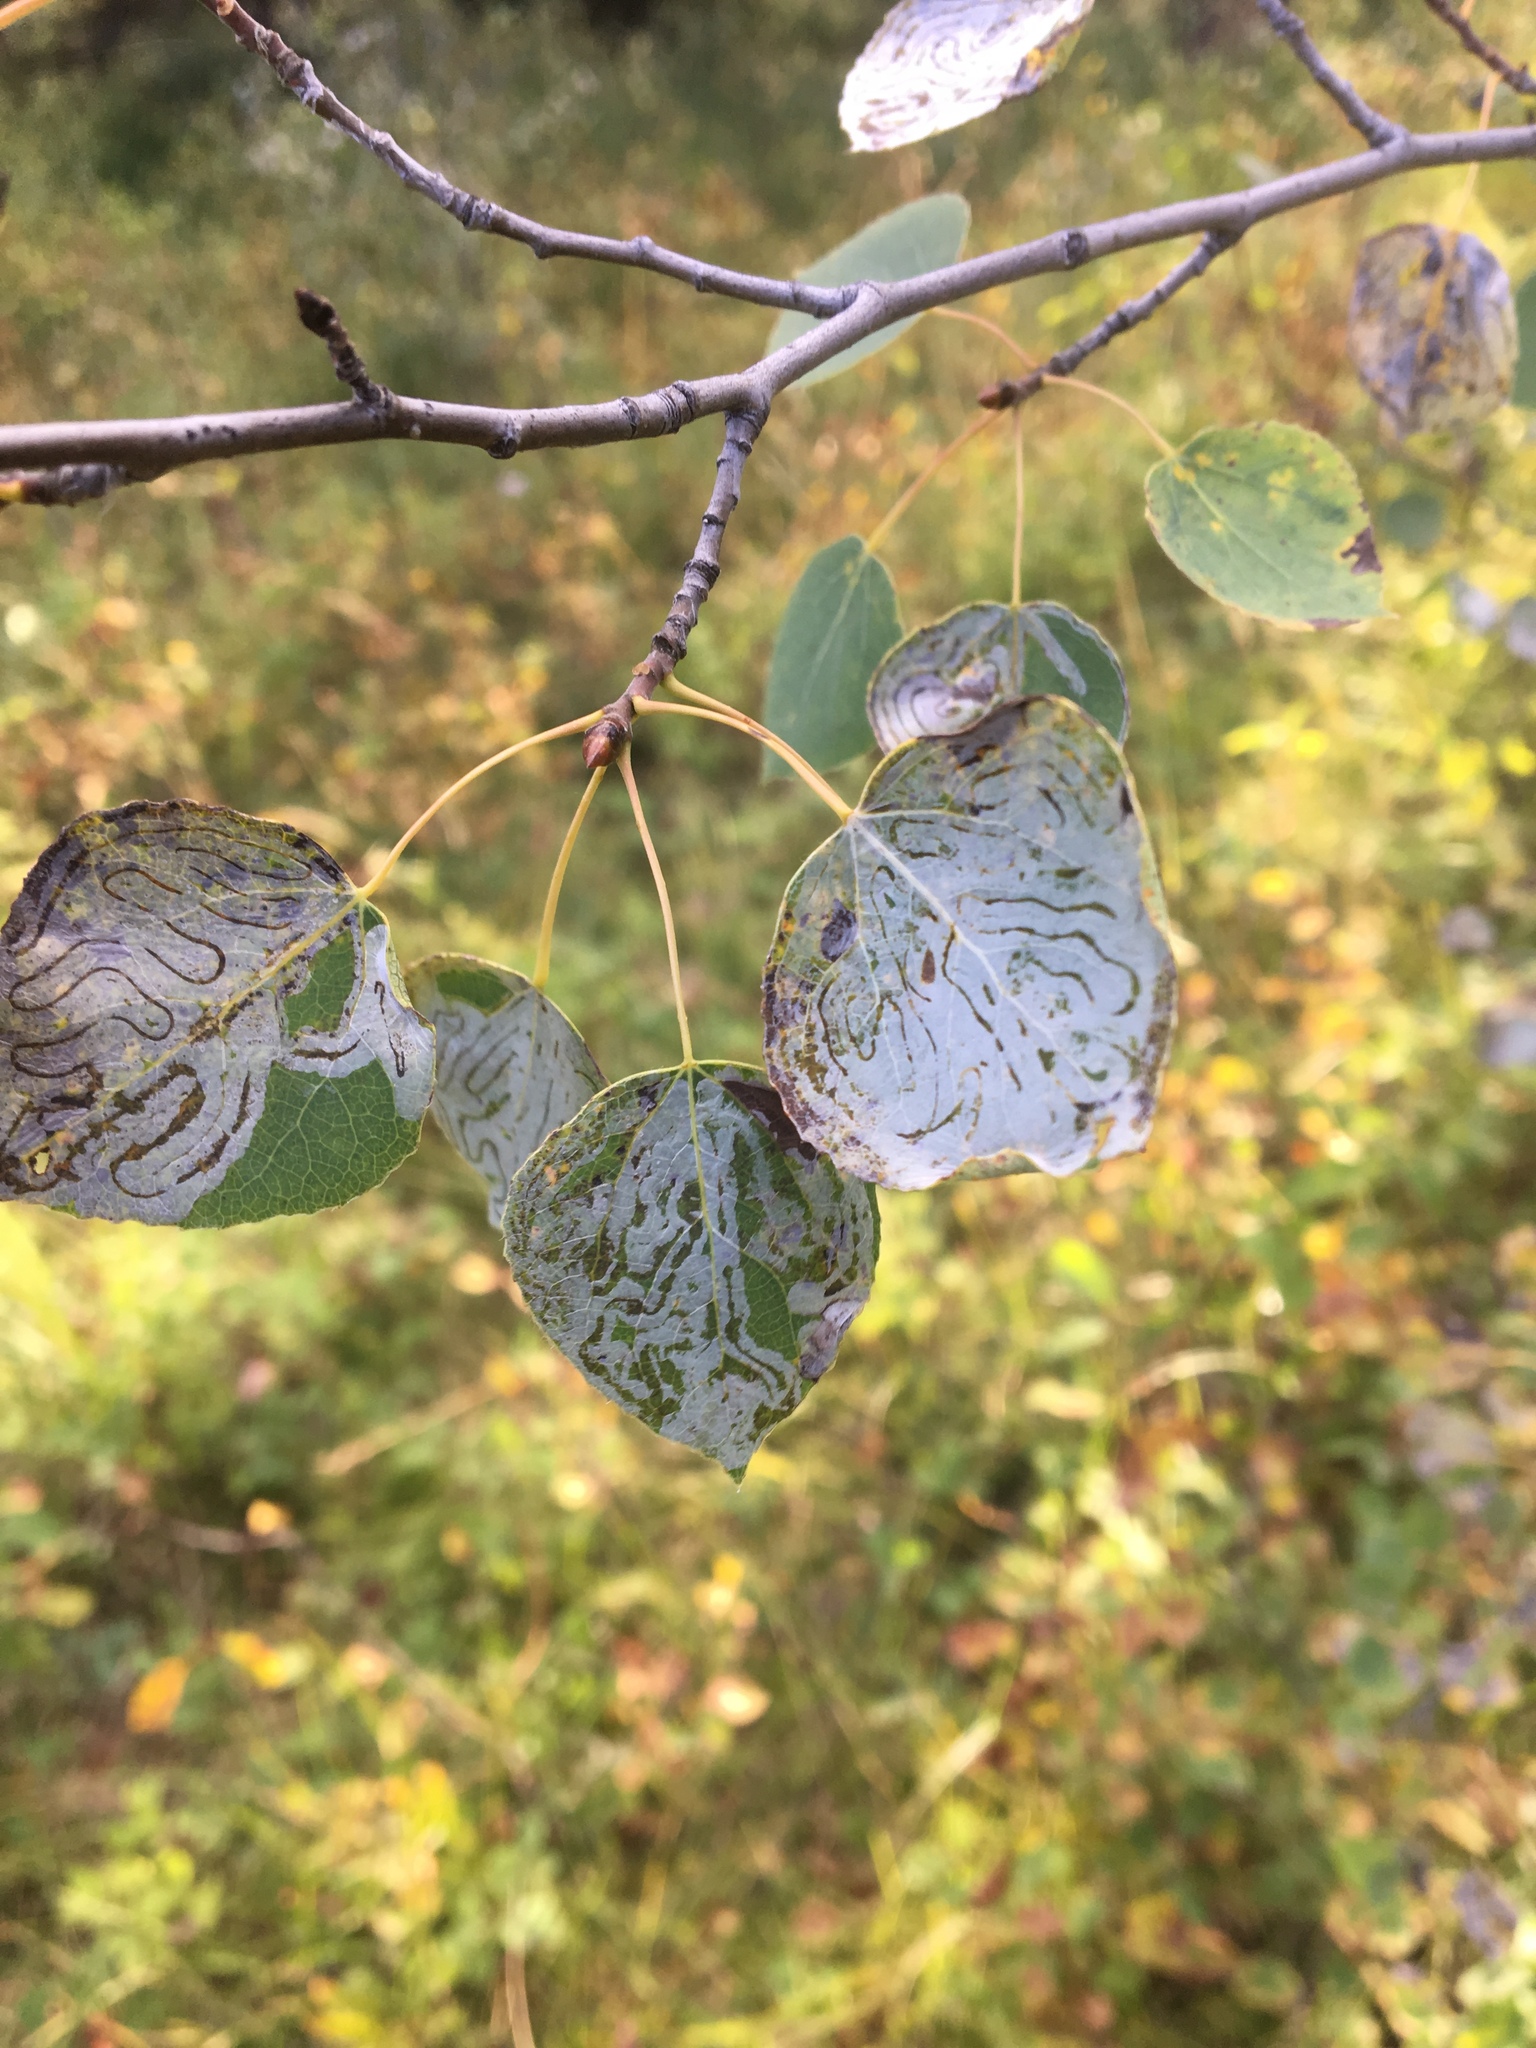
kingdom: Animalia
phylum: Arthropoda
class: Insecta
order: Lepidoptera
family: Gracillariidae
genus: Phyllocnistis
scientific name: Phyllocnistis populiella
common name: Aspen serpentine leafminer moth
